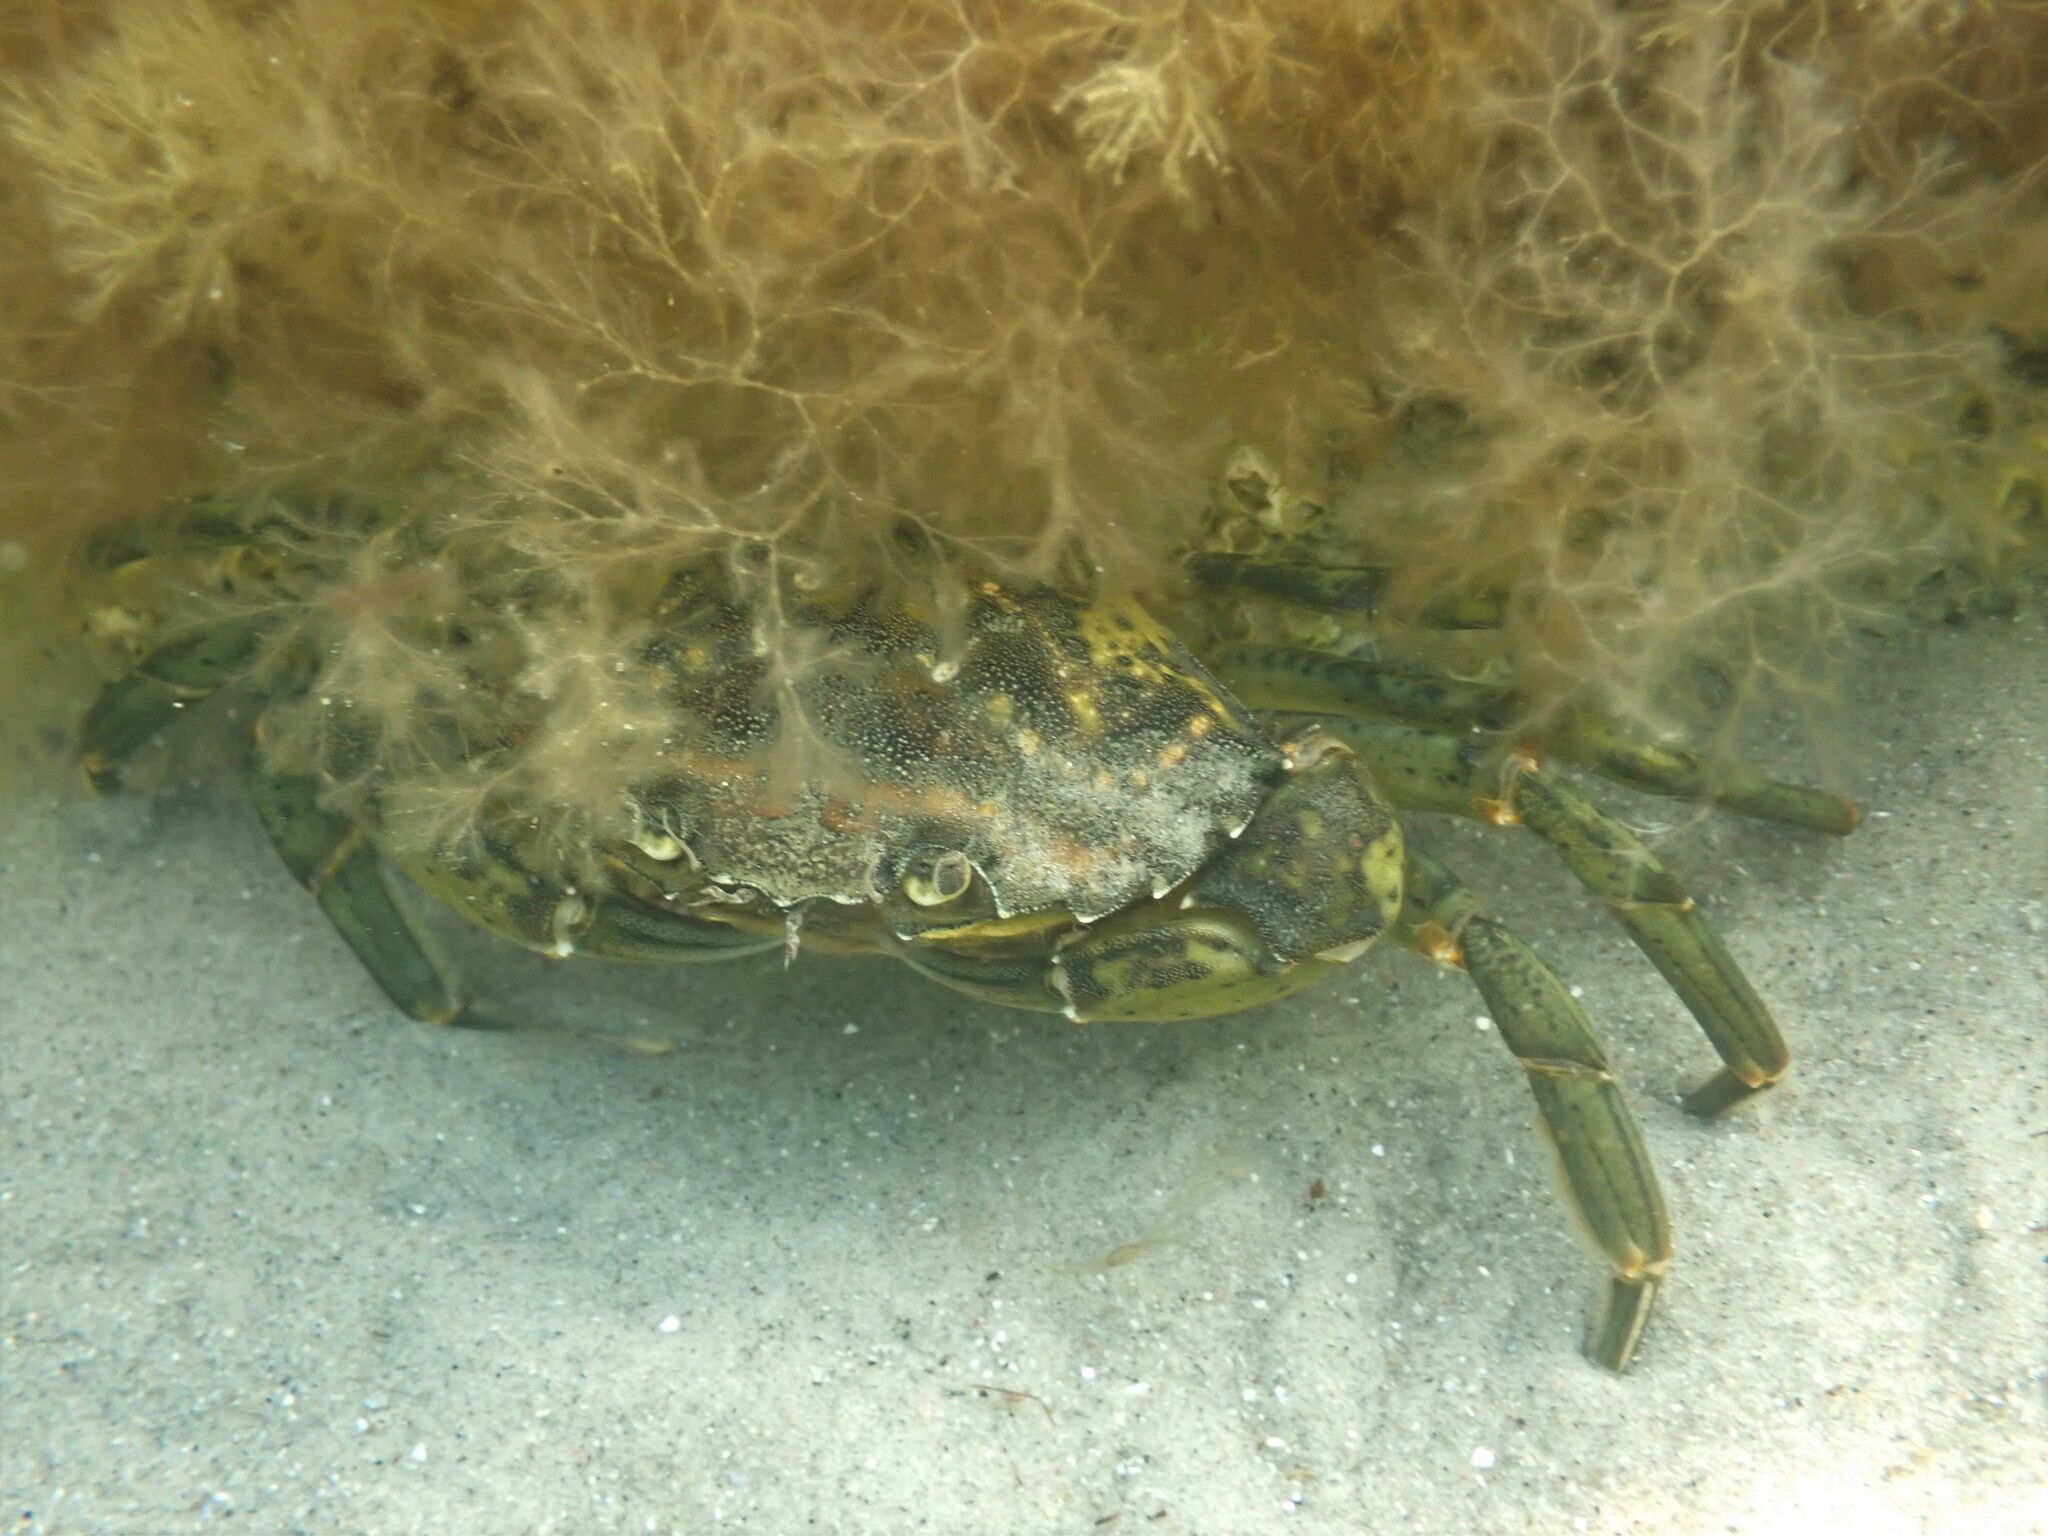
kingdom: Animalia
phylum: Arthropoda
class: Malacostraca
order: Decapoda
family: Carcinidae
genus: Carcinus
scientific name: Carcinus maenas
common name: European green crab
